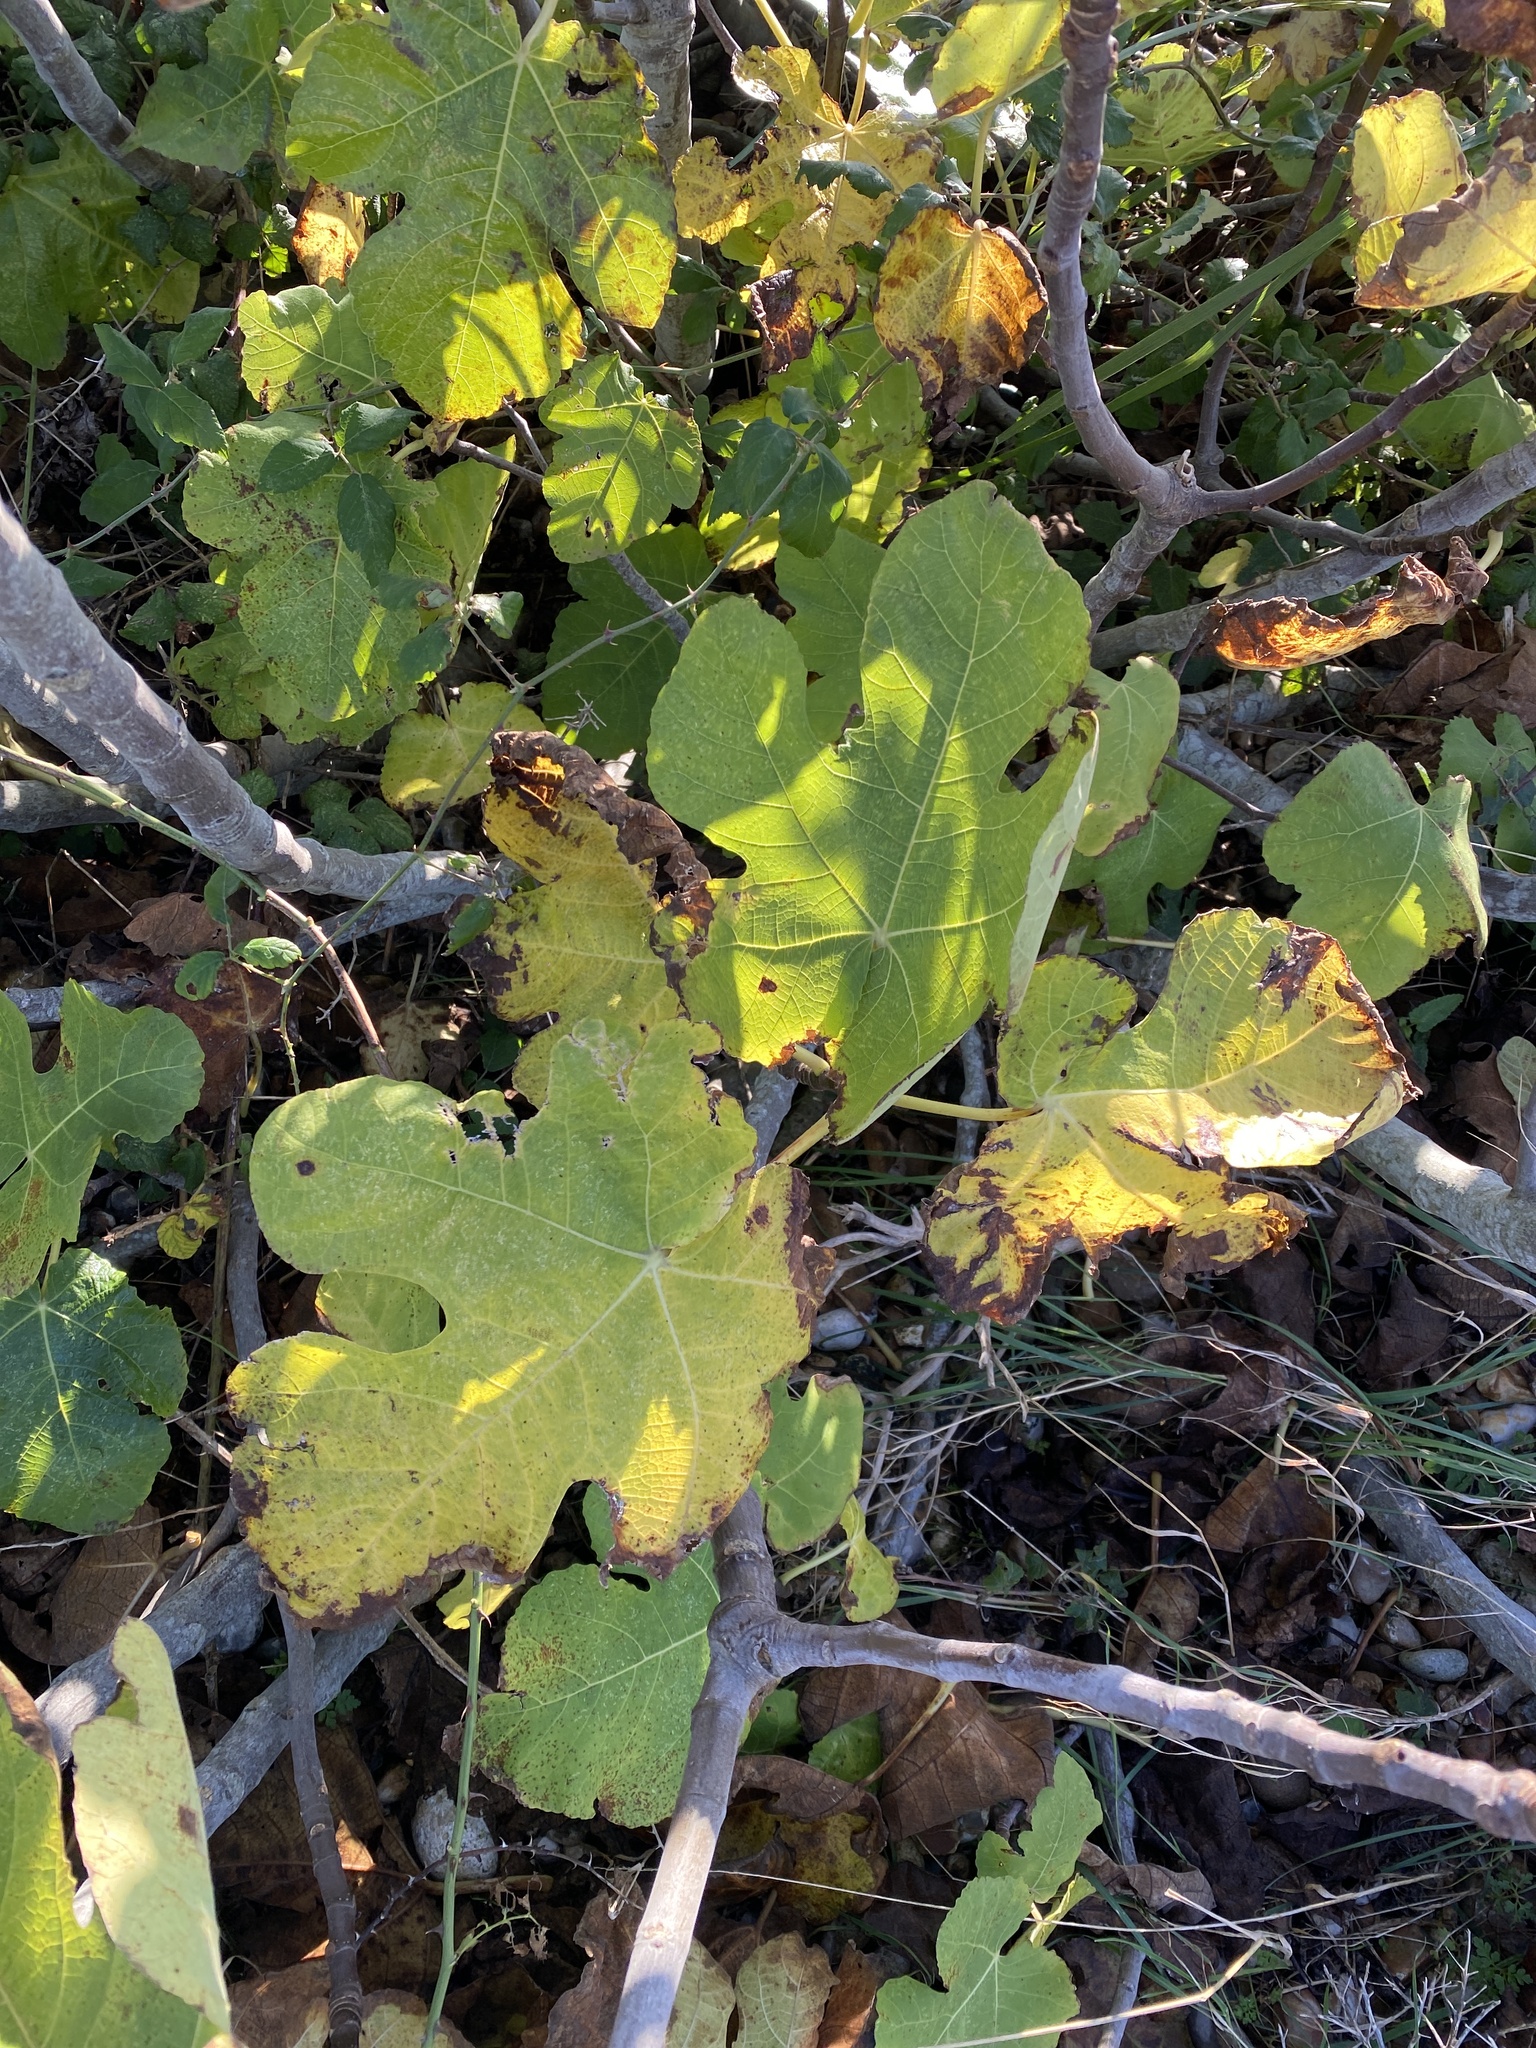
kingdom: Plantae
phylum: Tracheophyta
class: Magnoliopsida
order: Rosales
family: Moraceae
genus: Ficus
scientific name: Ficus carica
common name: Fig
